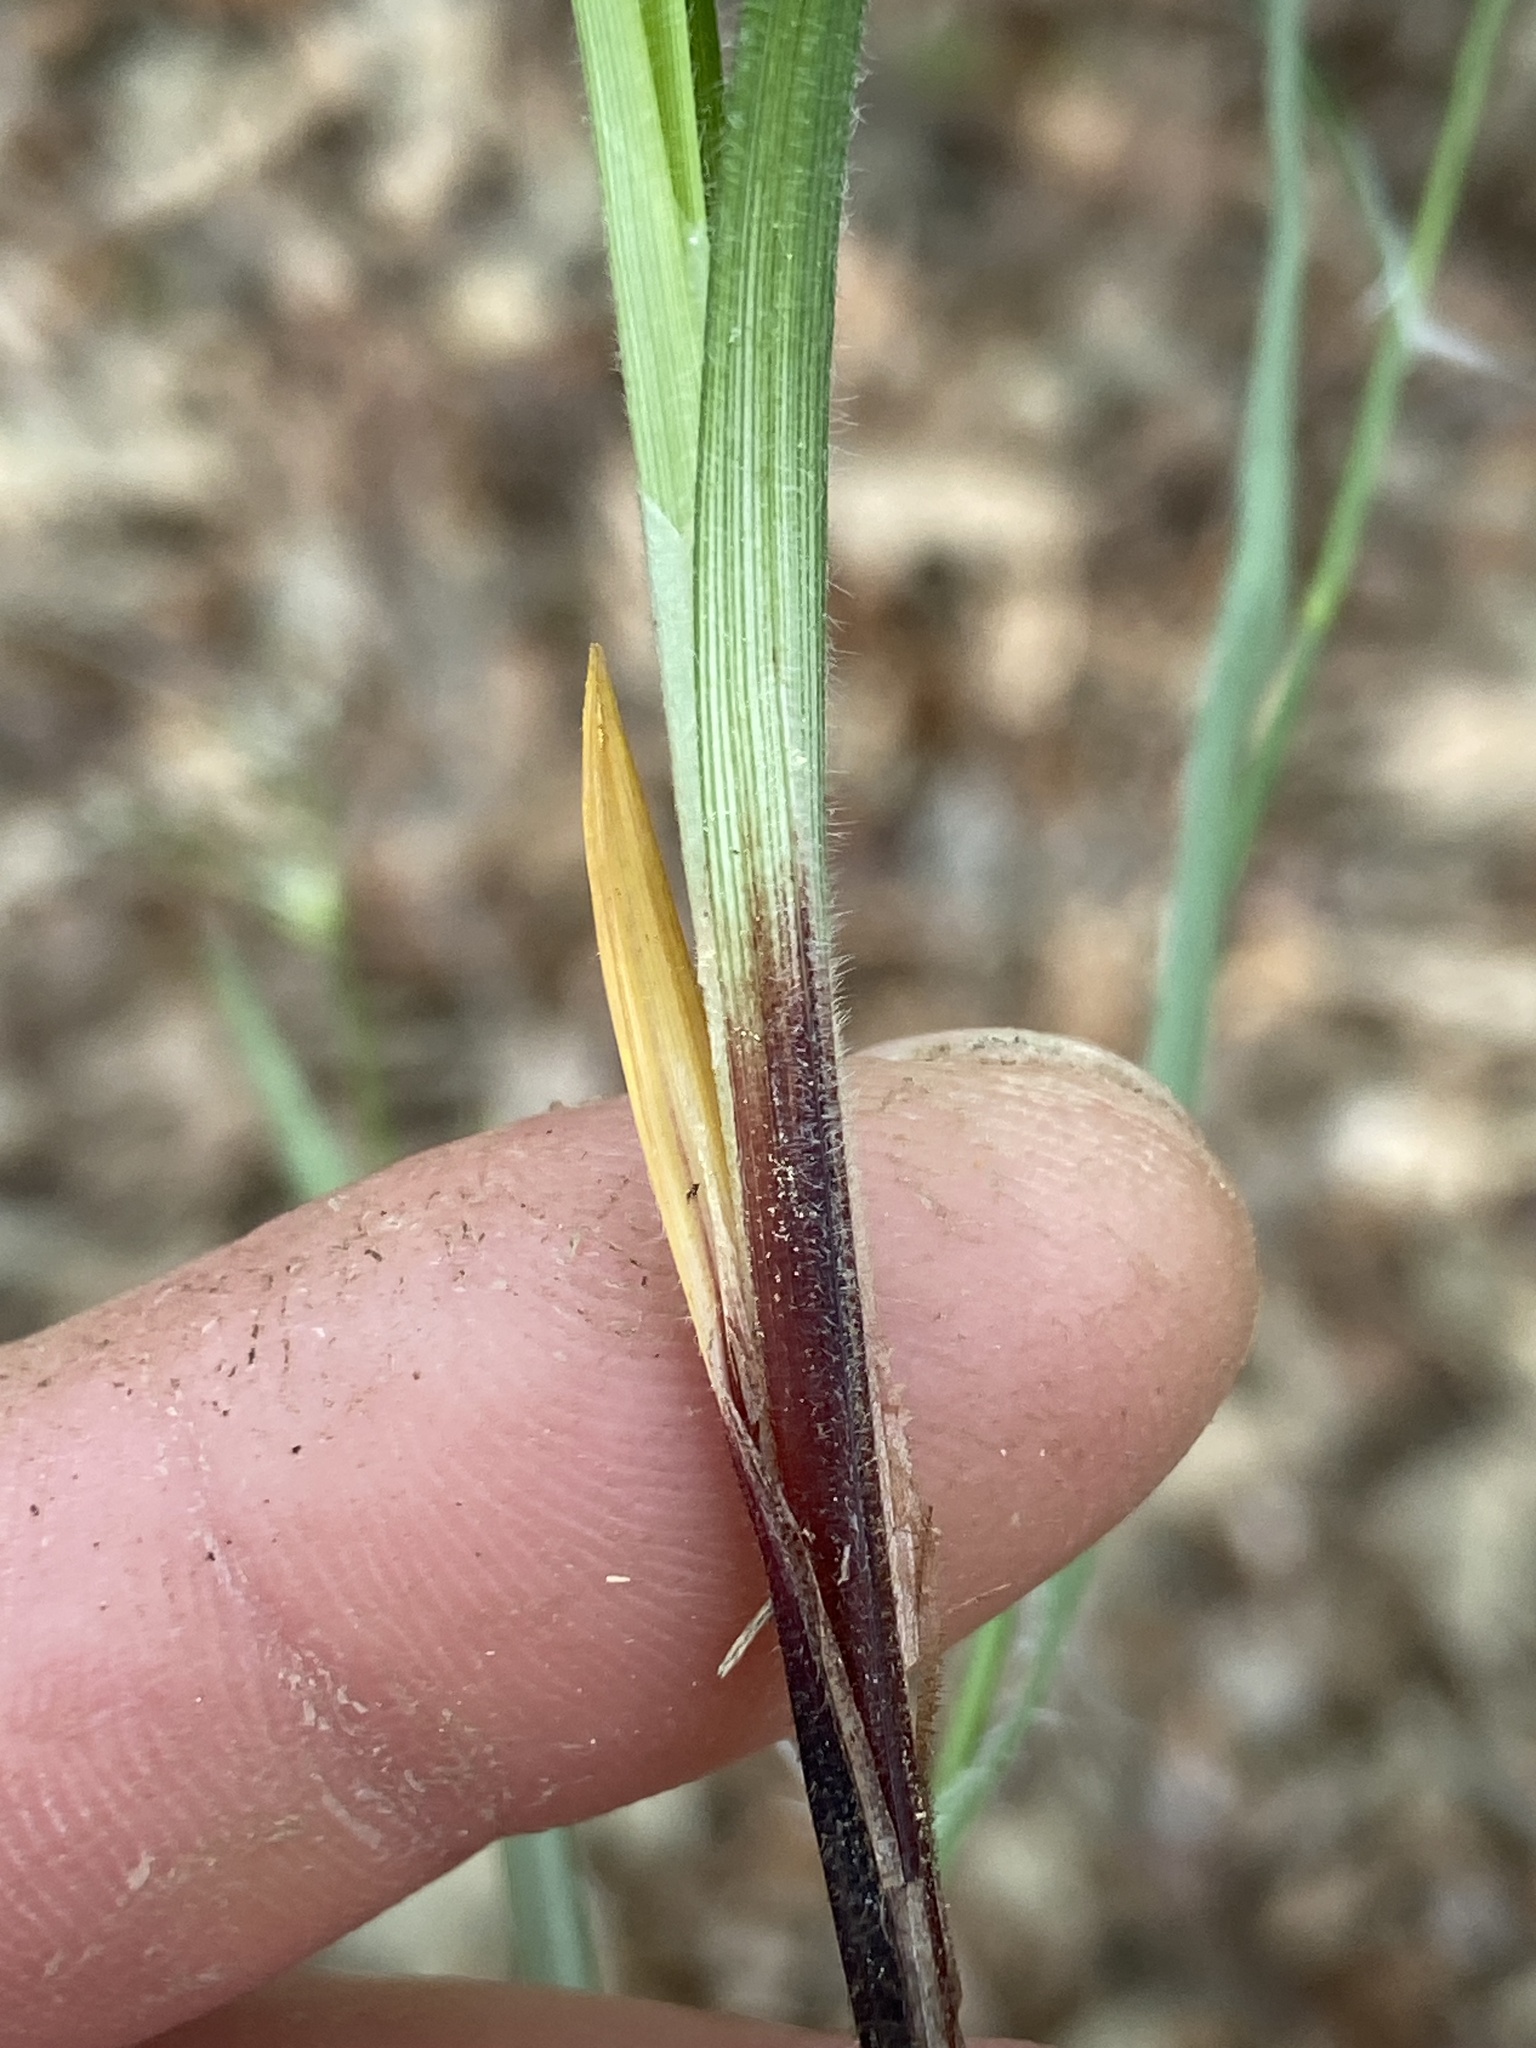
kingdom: Plantae
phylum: Tracheophyta
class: Liliopsida
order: Poales
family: Cyperaceae
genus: Carex
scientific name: Carex oxylepis
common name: Sharpscale sedge
